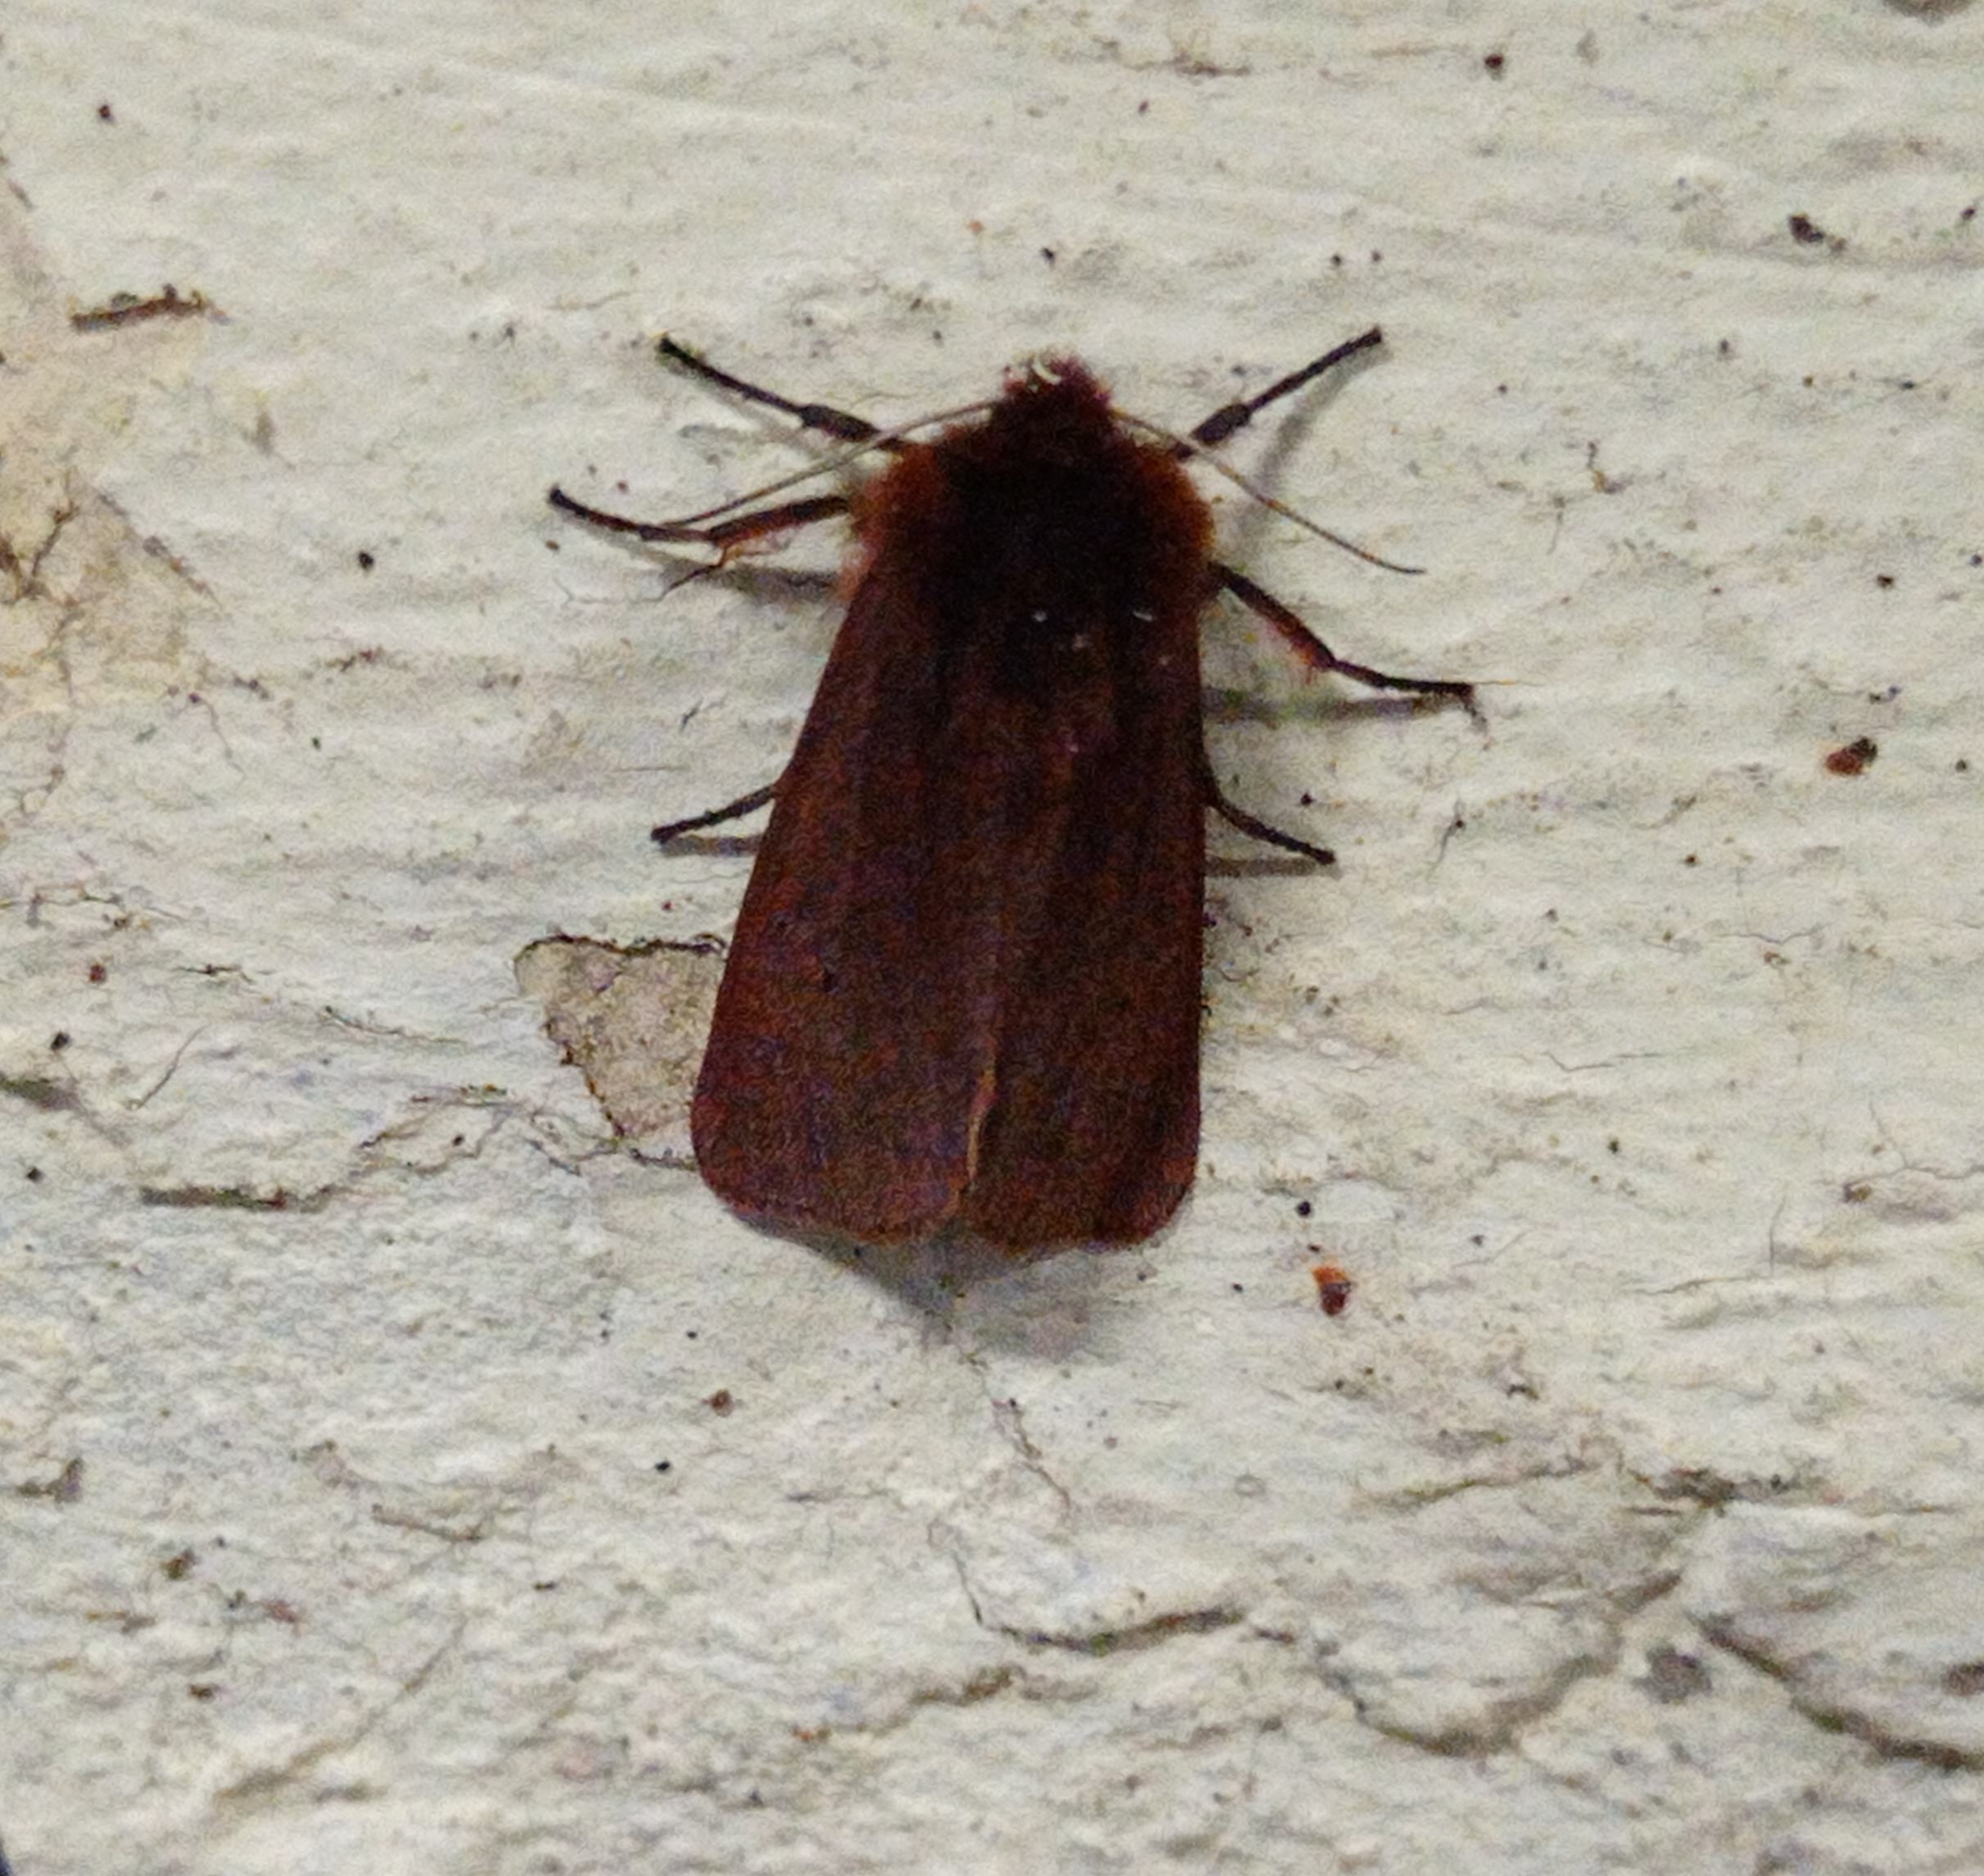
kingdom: Animalia
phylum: Arthropoda
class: Insecta
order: Lepidoptera
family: Erebidae
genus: Phragmatobia
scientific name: Phragmatobia fuliginosa
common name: Ruby tiger
